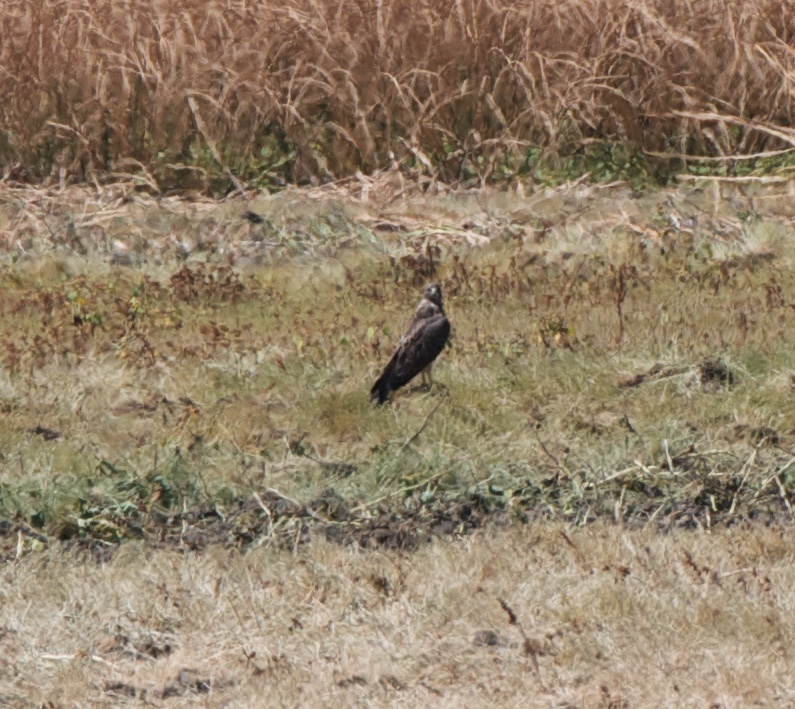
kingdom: Animalia
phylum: Chordata
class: Aves
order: Accipitriformes
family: Accipitridae
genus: Buteo
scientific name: Buteo swainsoni
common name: Swainson's hawk
